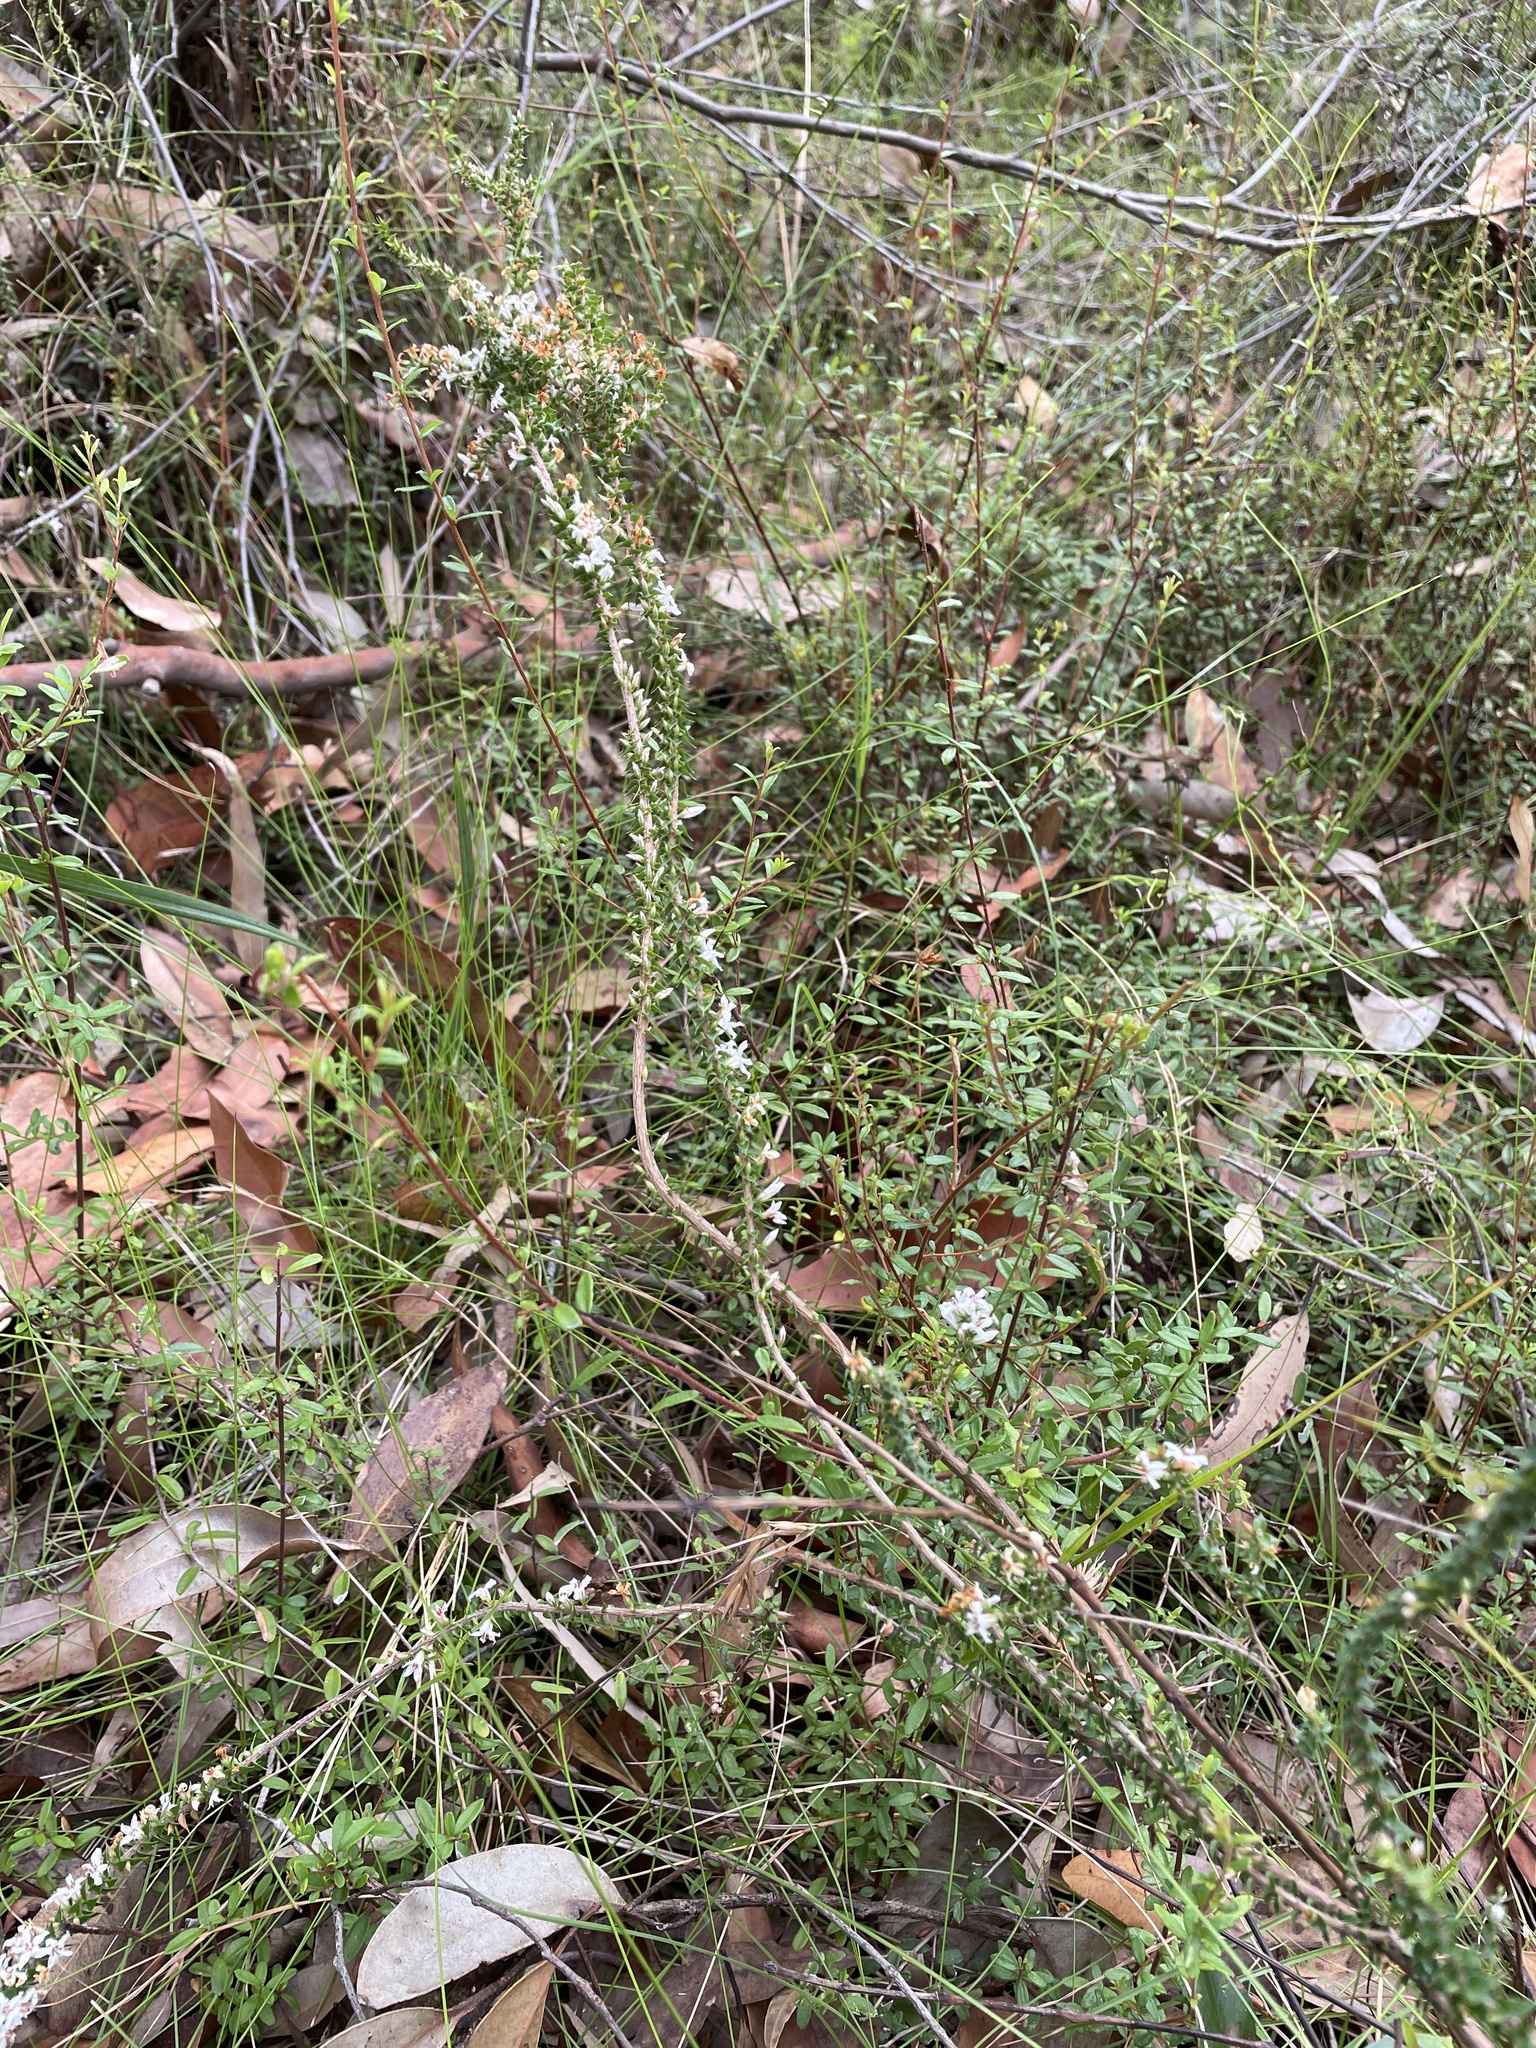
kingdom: Plantae
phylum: Tracheophyta
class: Magnoliopsida
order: Ericales
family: Ericaceae
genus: Epacris
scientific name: Epacris pulchella
